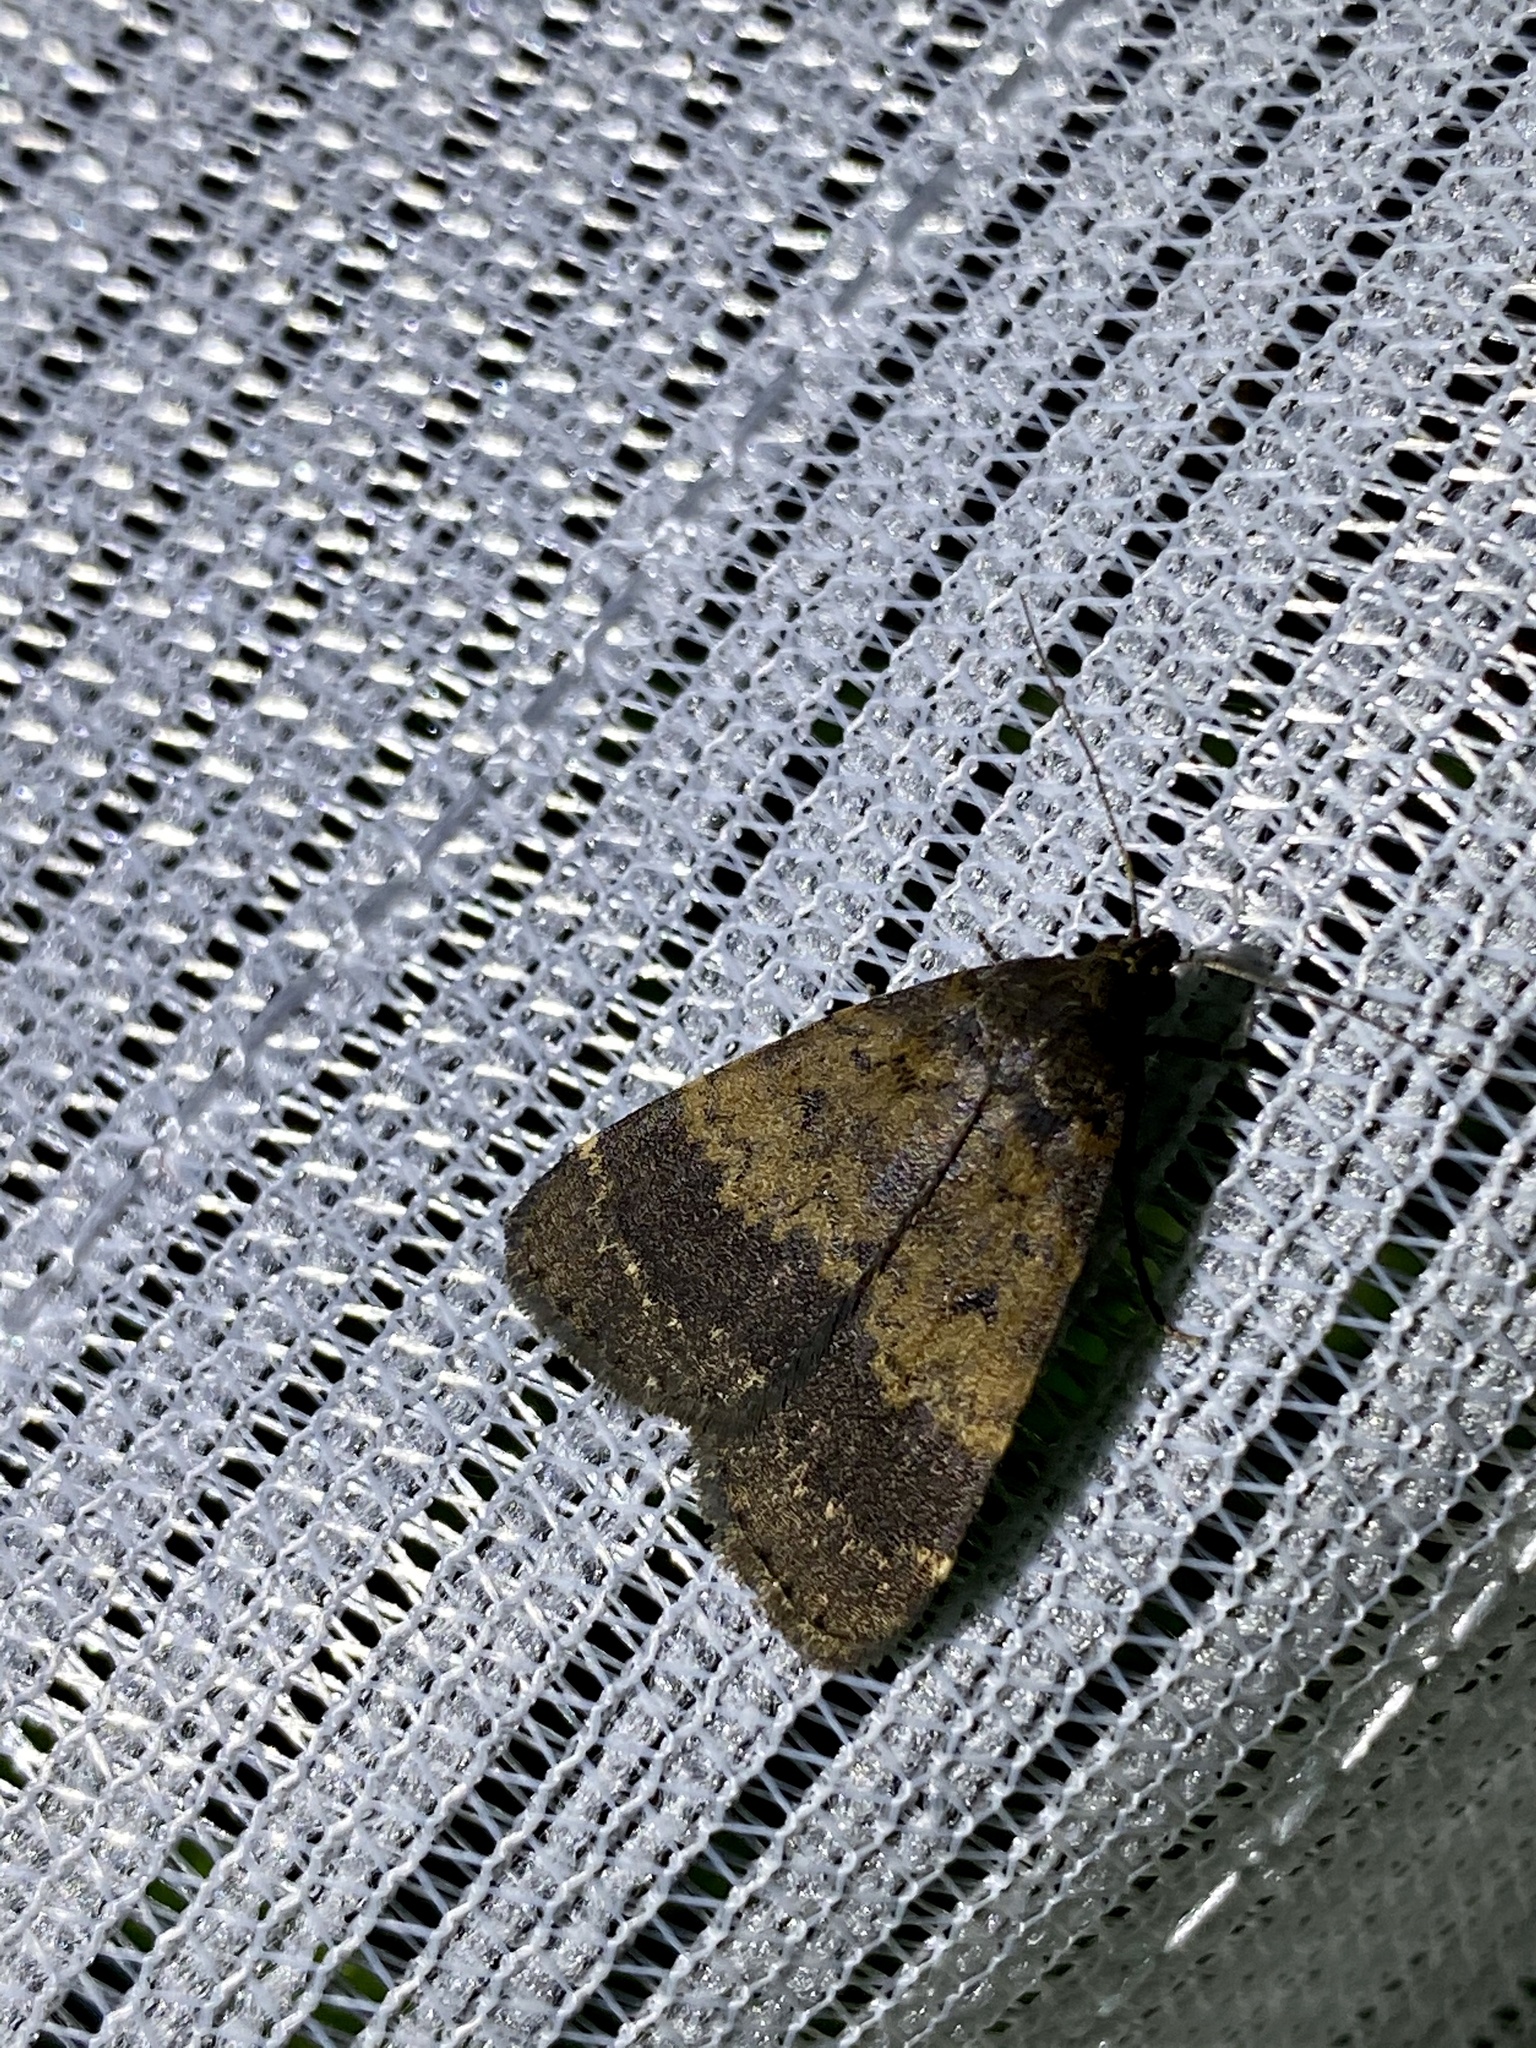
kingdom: Animalia
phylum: Arthropoda
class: Insecta
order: Lepidoptera
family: Erebidae
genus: Hydrillodes
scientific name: Hydrillodes morosa
